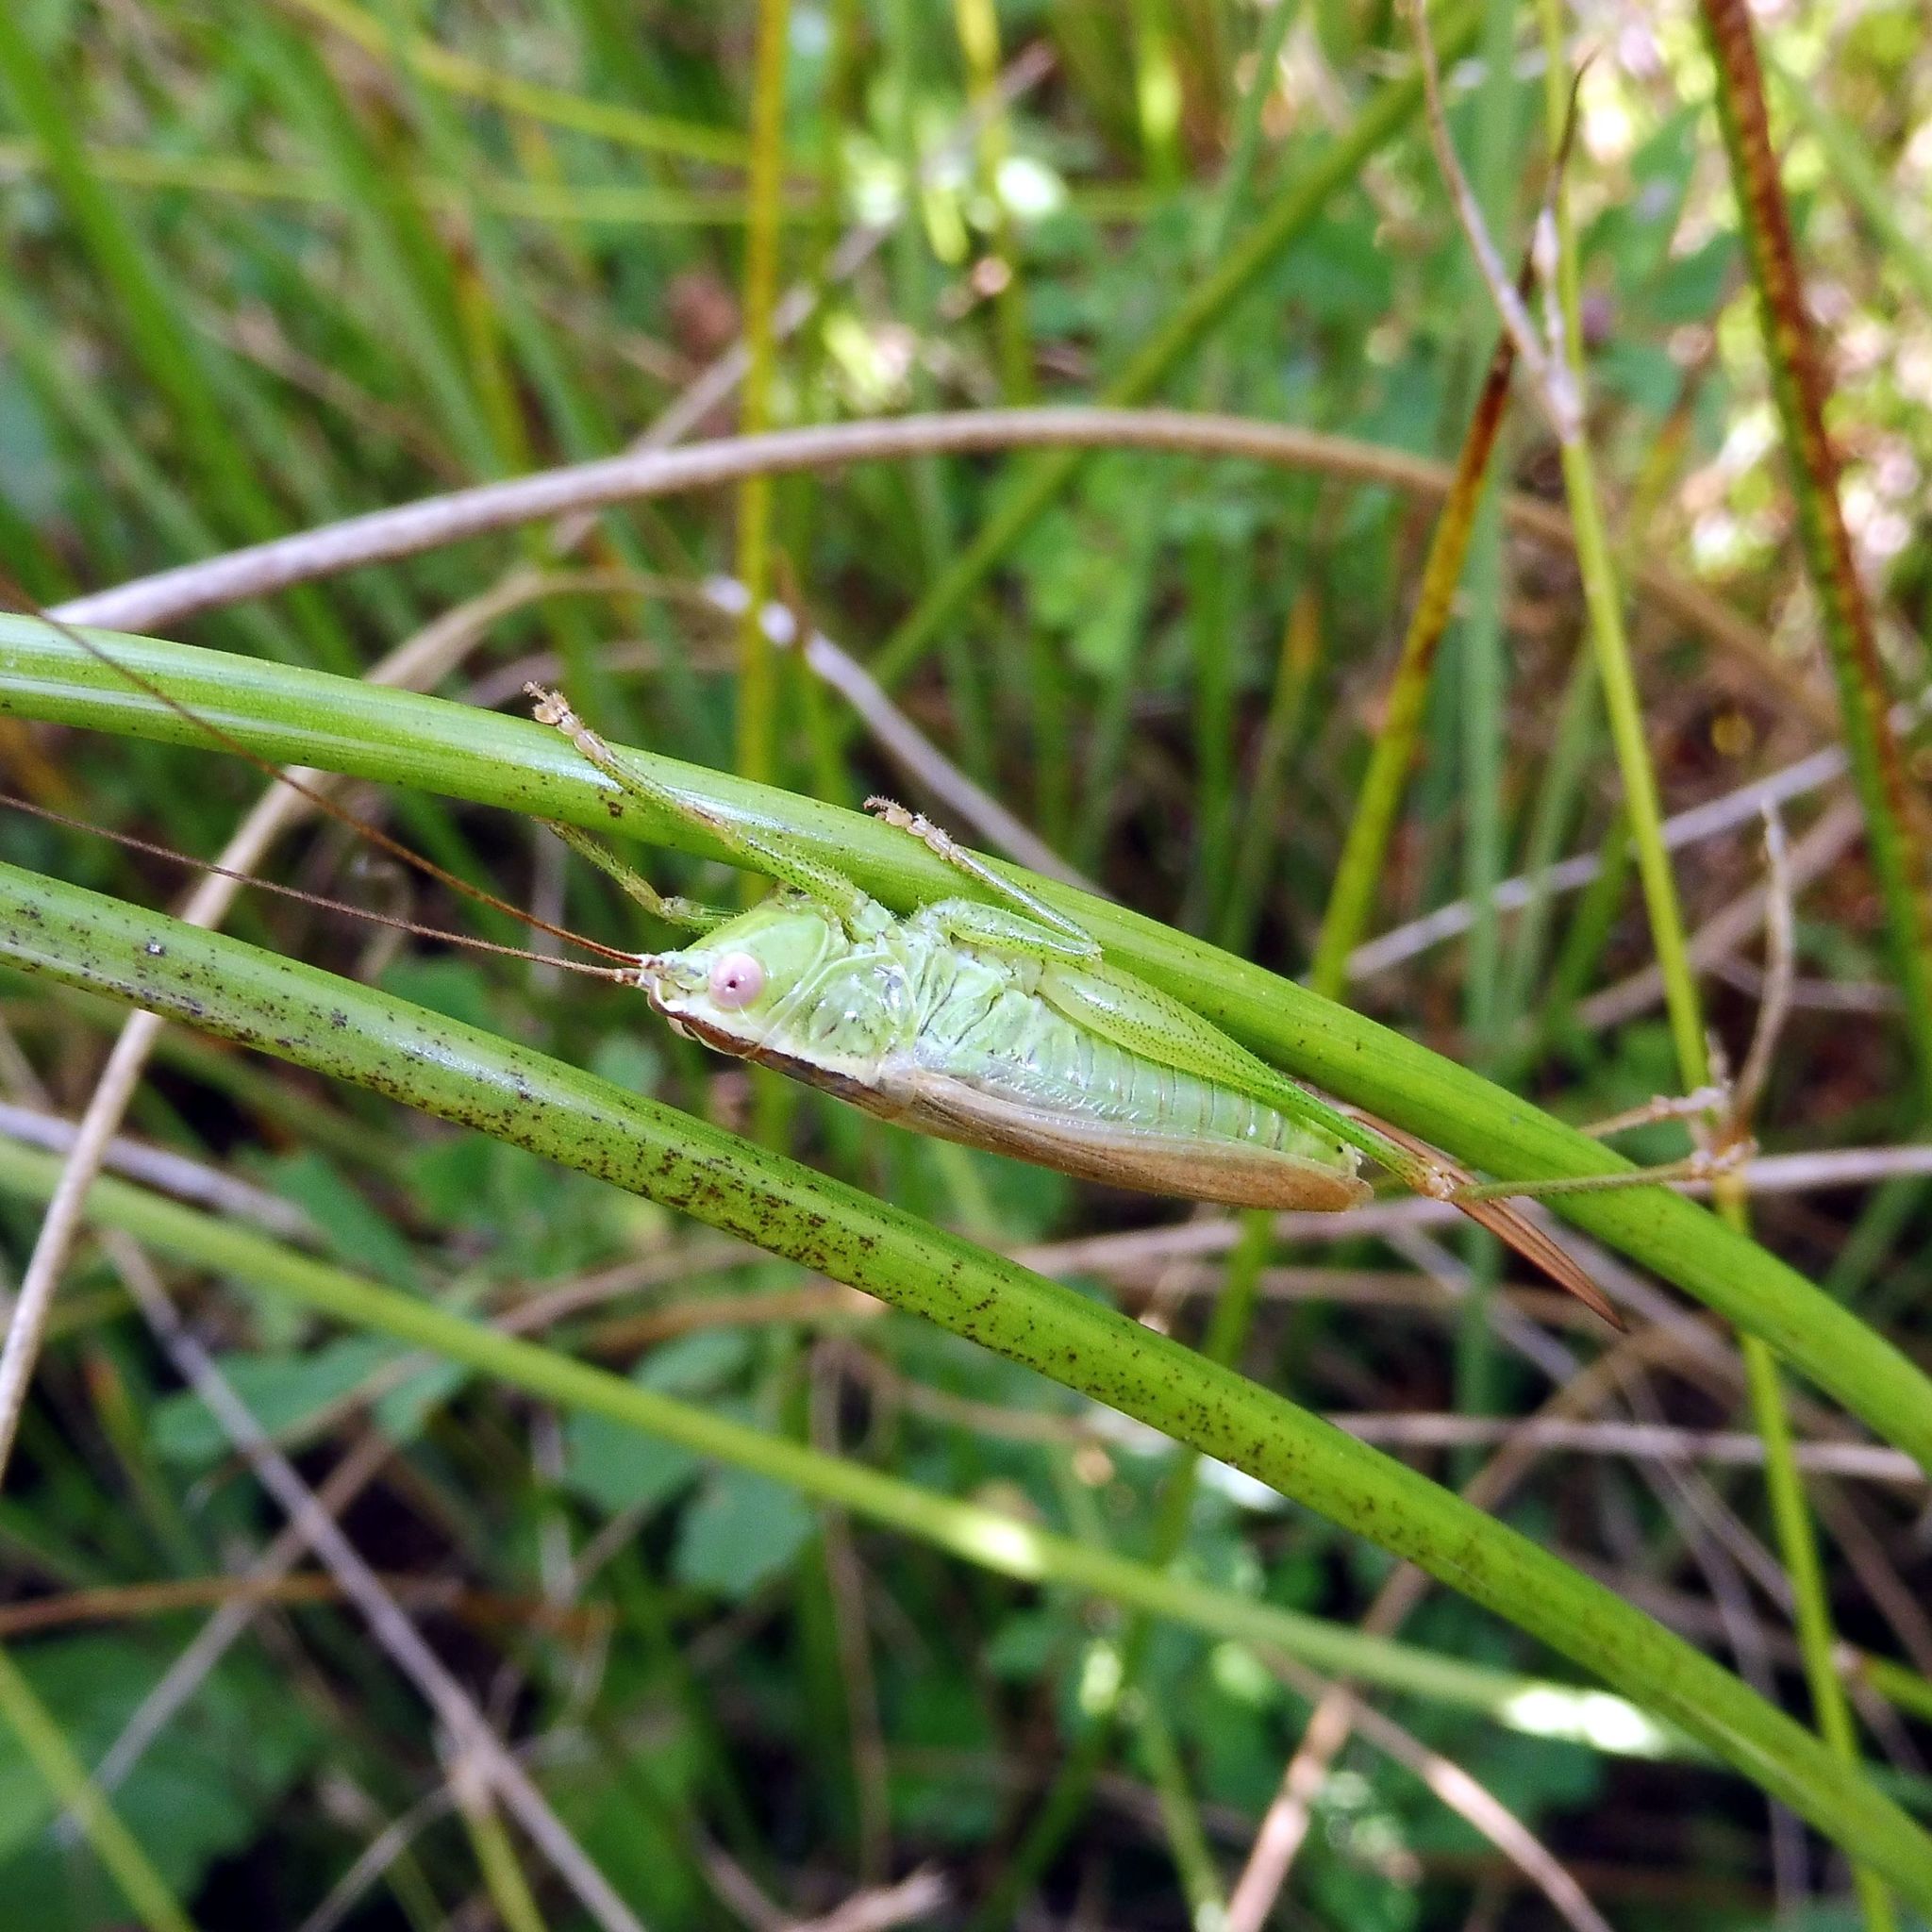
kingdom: Animalia
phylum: Arthropoda
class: Insecta
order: Orthoptera
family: Tettigoniidae
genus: Conocephalus
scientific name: Conocephalus fuscus
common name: Long-winged conehead
